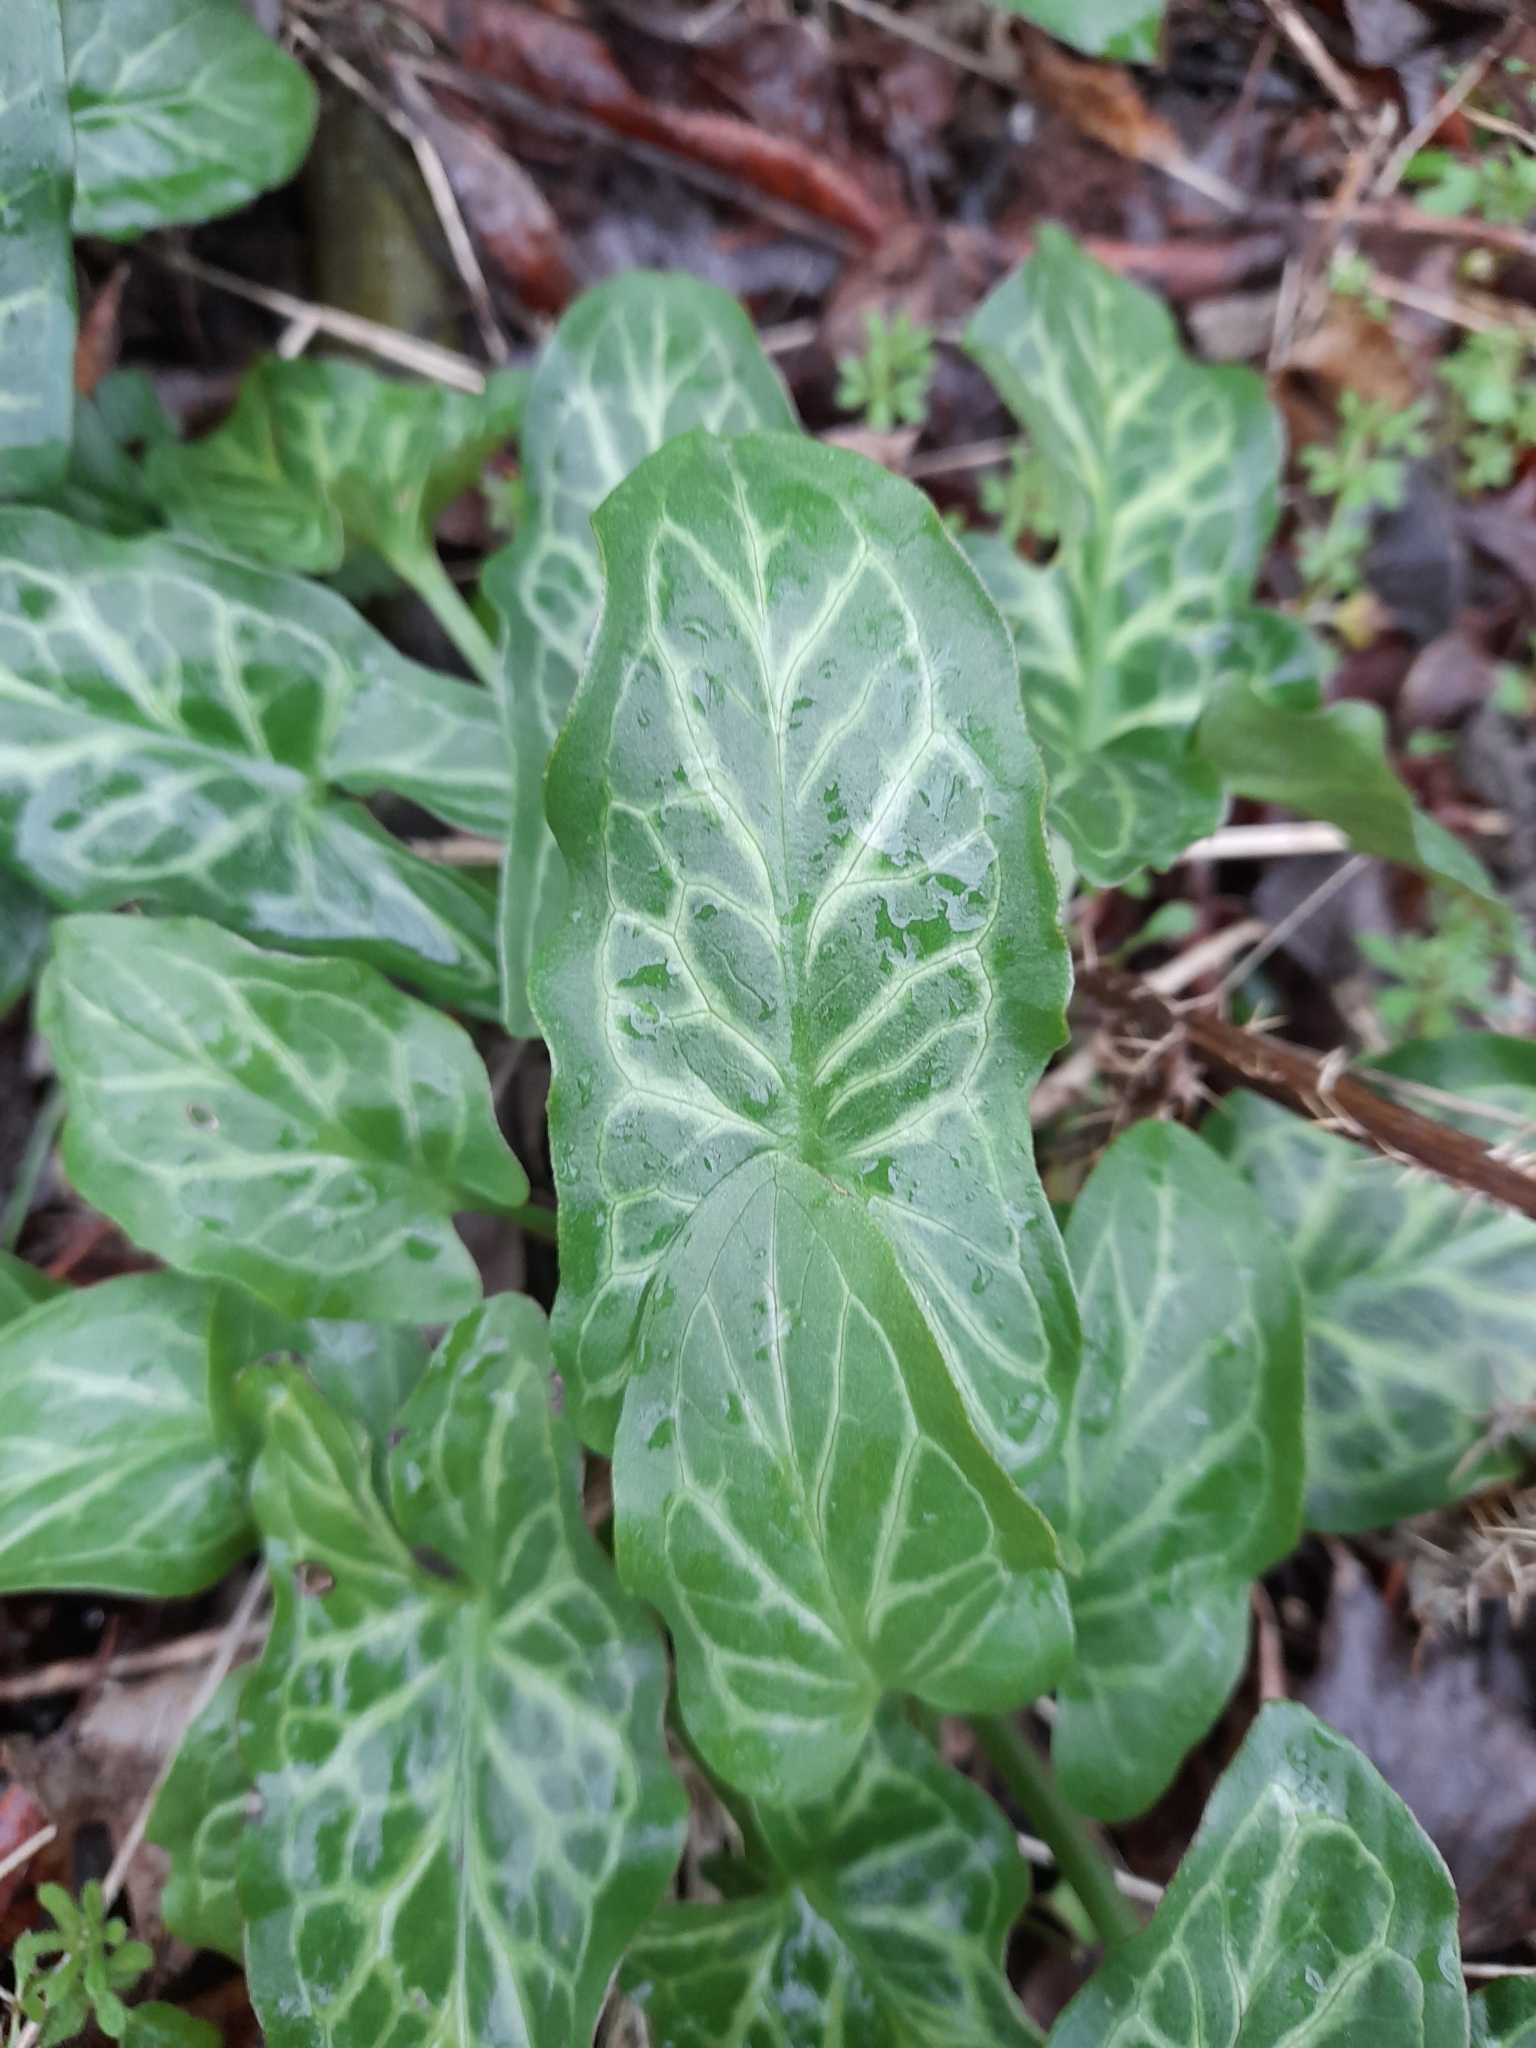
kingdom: Plantae
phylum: Tracheophyta
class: Liliopsida
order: Alismatales
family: Araceae
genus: Arum
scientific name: Arum italicum
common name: Italian lords-and-ladies
